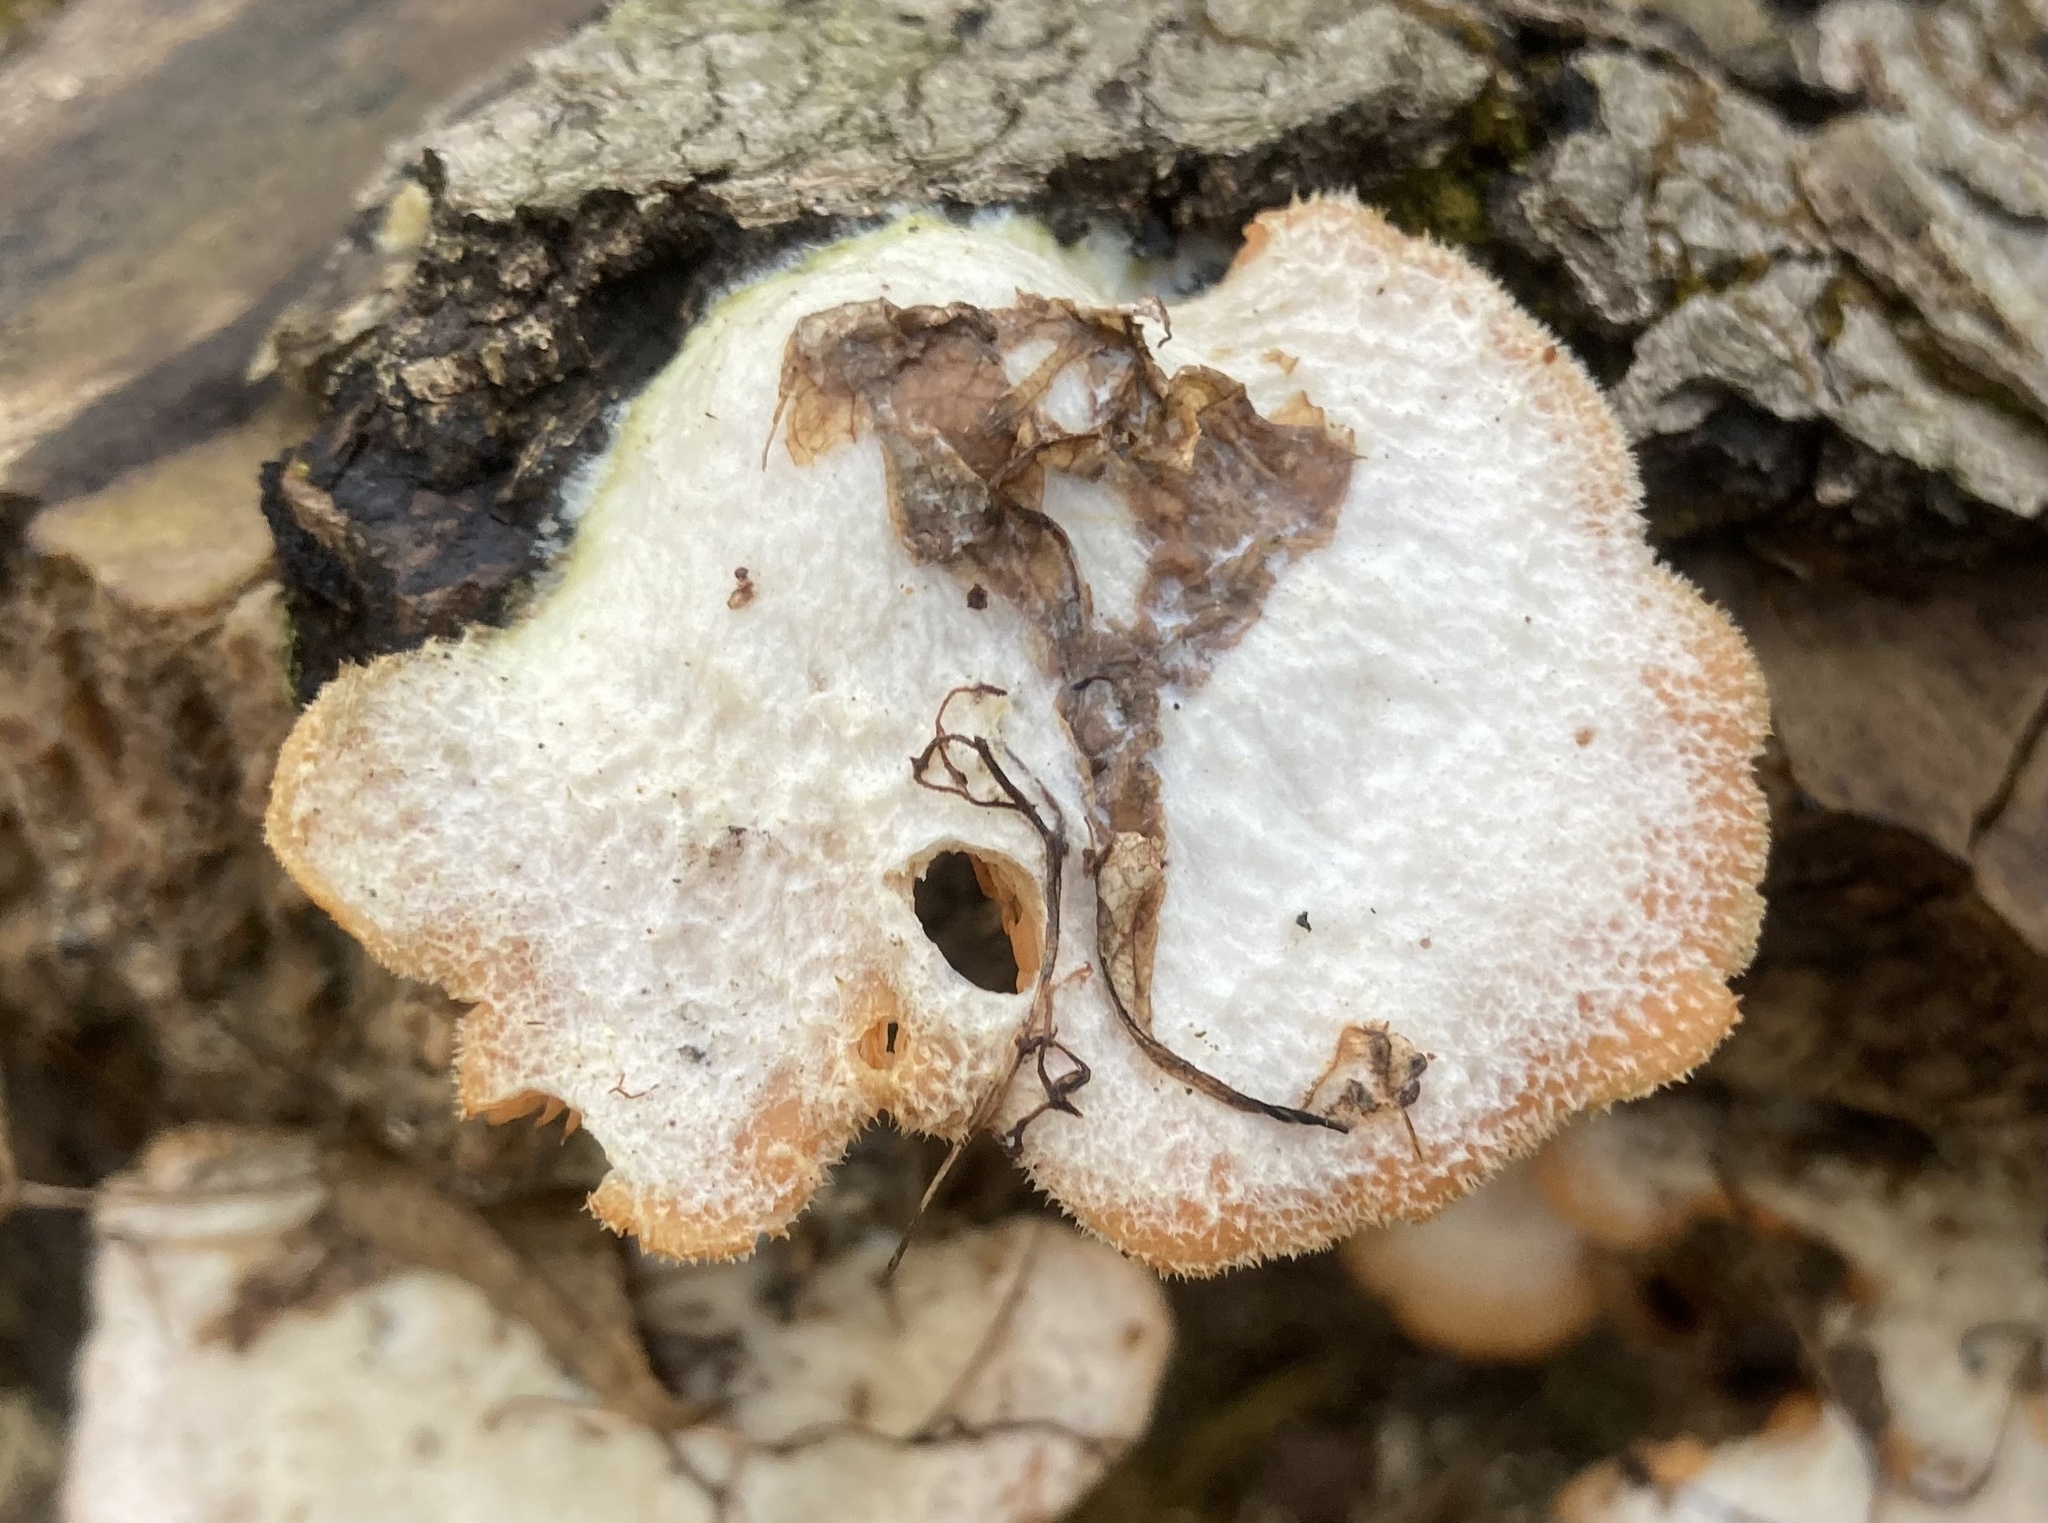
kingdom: Fungi
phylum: Basidiomycota
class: Agaricomycetes
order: Agaricales
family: Phyllotopsidaceae
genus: Phyllotopsis
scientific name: Phyllotopsis nidulans
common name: Orange mock oyster
